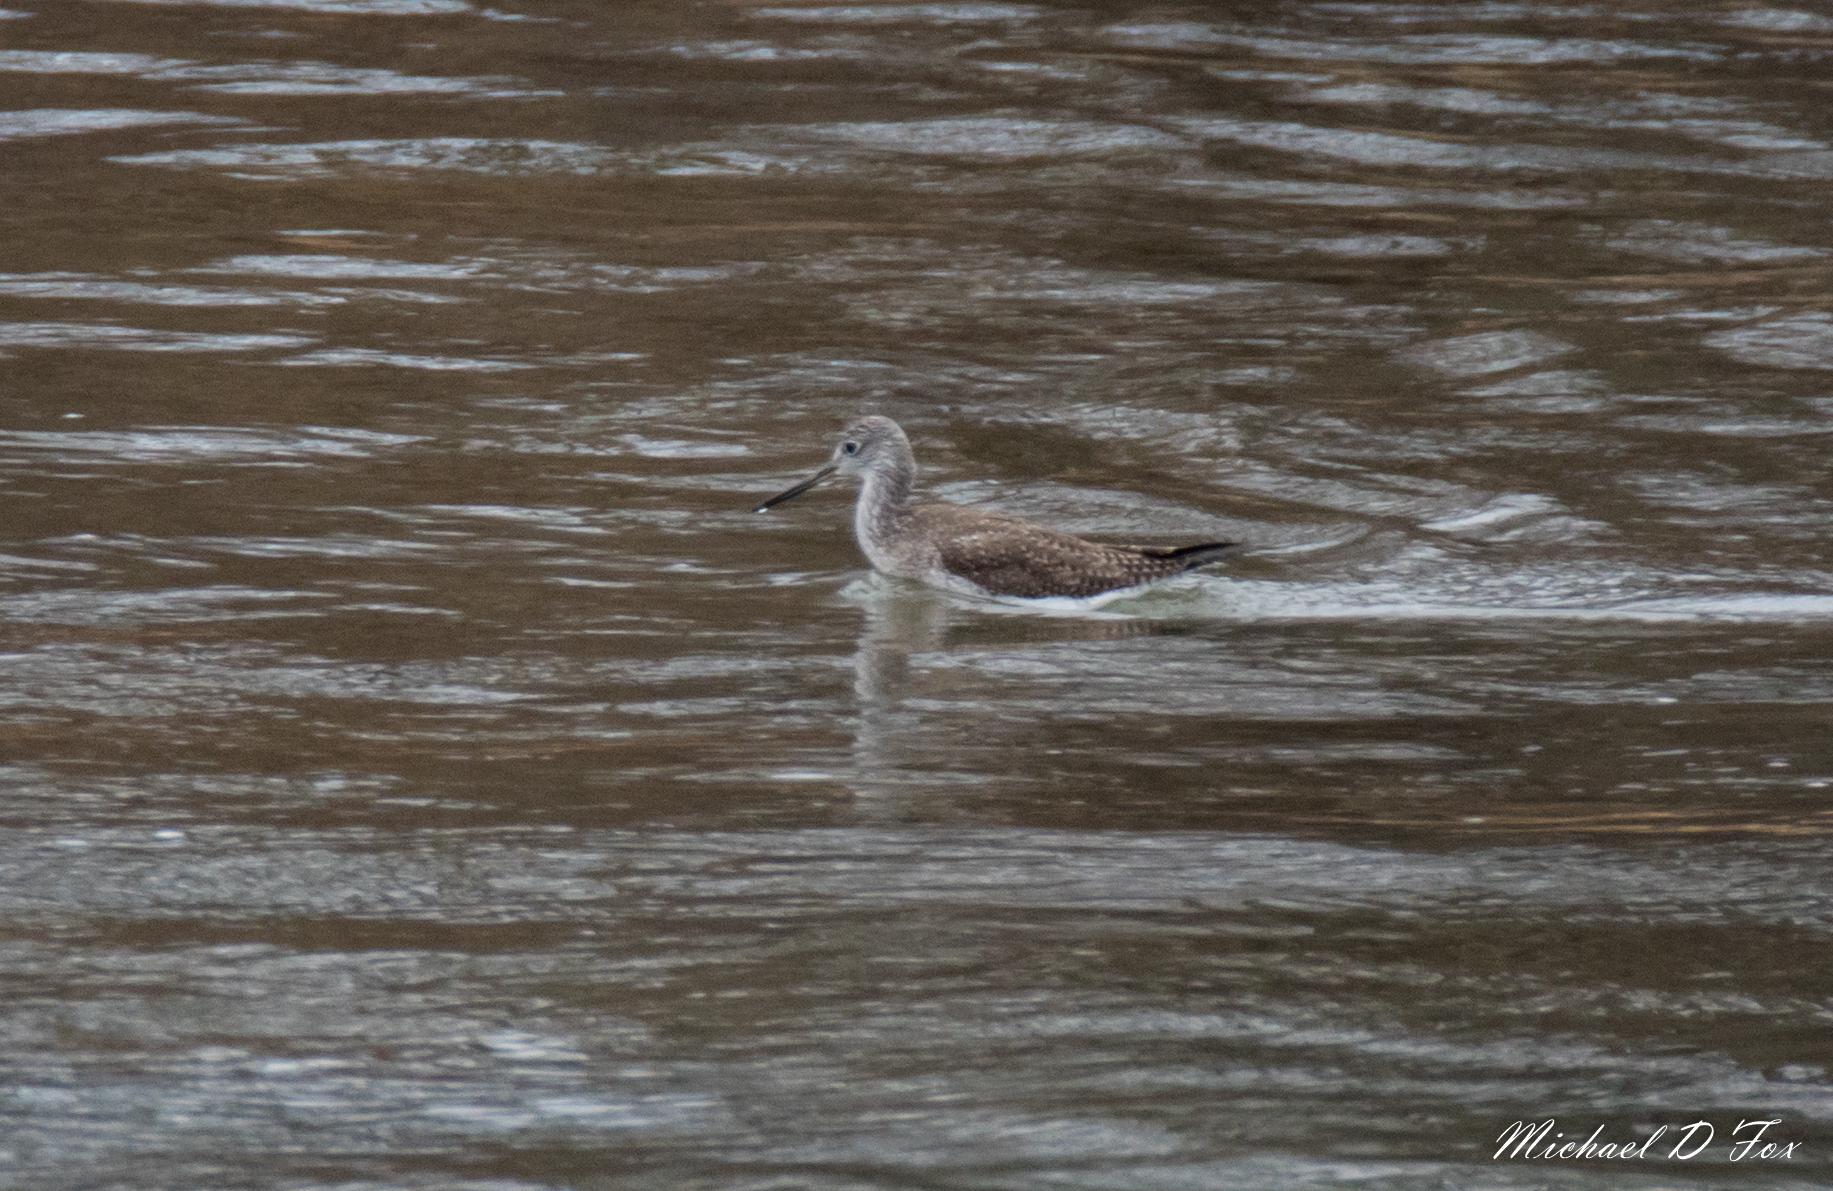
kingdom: Animalia
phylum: Chordata
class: Aves
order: Charadriiformes
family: Scolopacidae
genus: Tringa
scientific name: Tringa melanoleuca
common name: Greater yellowlegs
